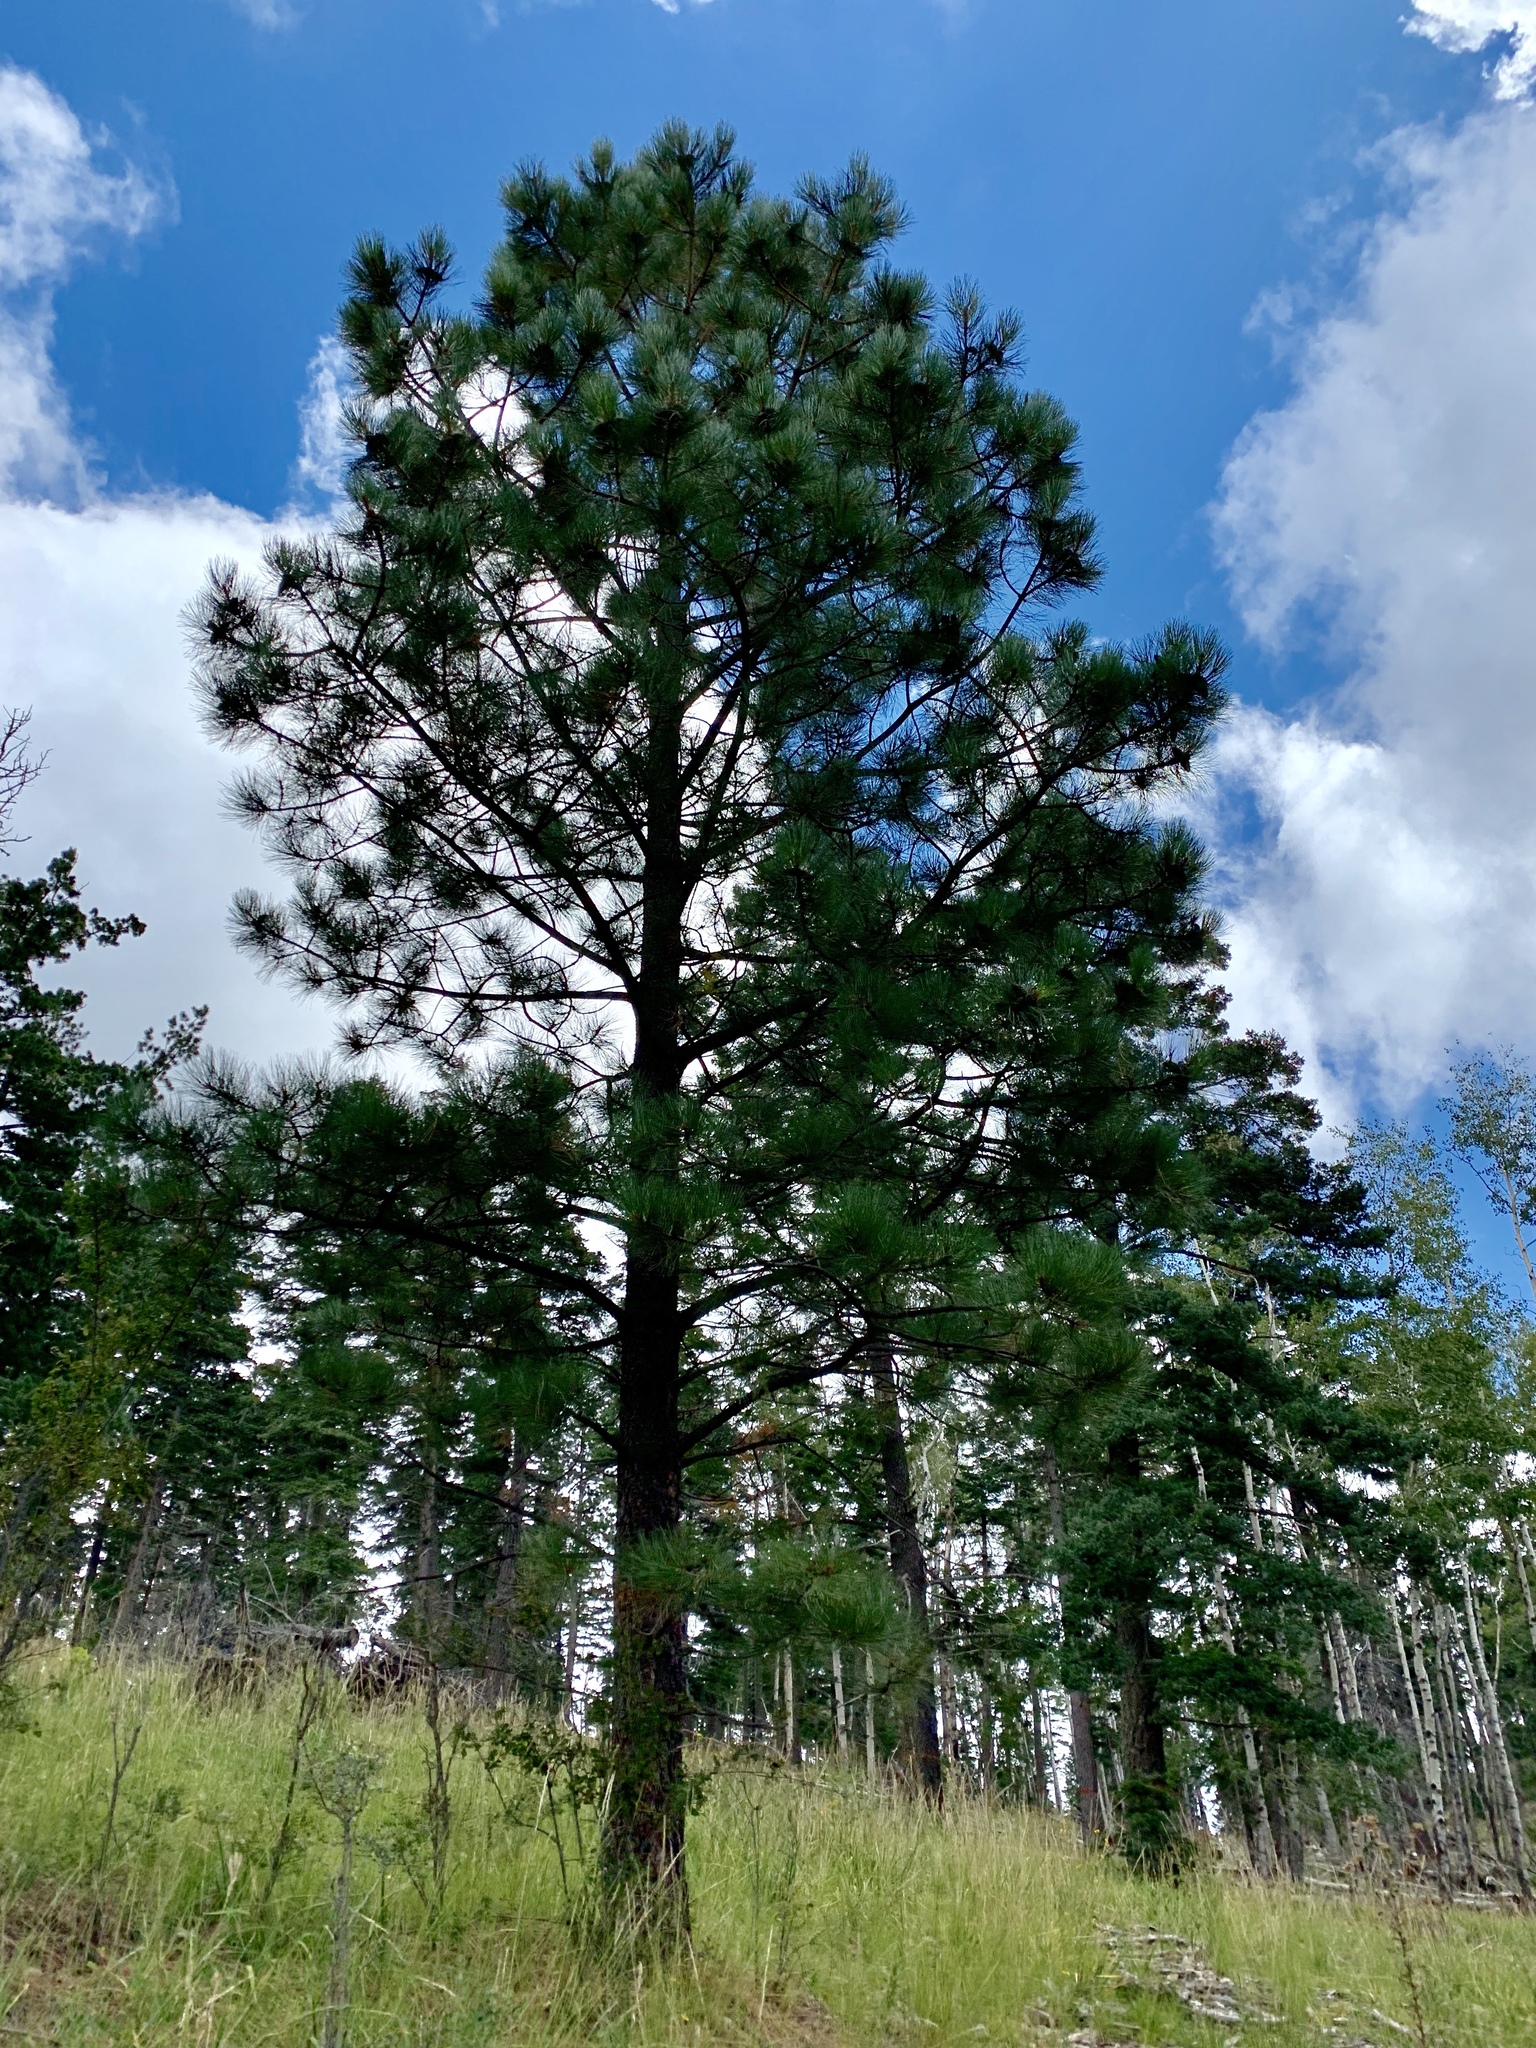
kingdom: Plantae
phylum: Tracheophyta
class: Pinopsida
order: Pinales
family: Pinaceae
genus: Pinus
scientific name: Pinus ponderosa
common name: Western yellow-pine
